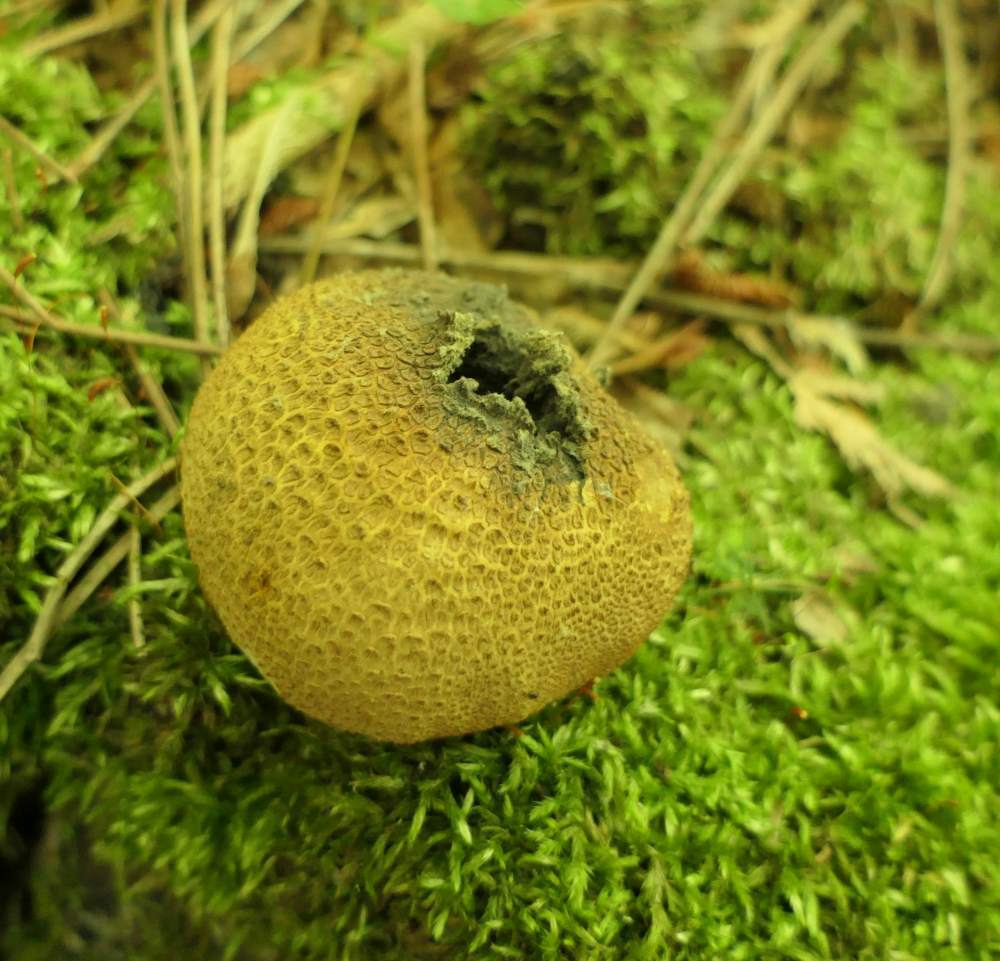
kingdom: Fungi
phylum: Basidiomycota
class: Agaricomycetes
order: Boletales
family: Sclerodermataceae
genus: Scleroderma
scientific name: Scleroderma citrinum
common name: Common earthball
